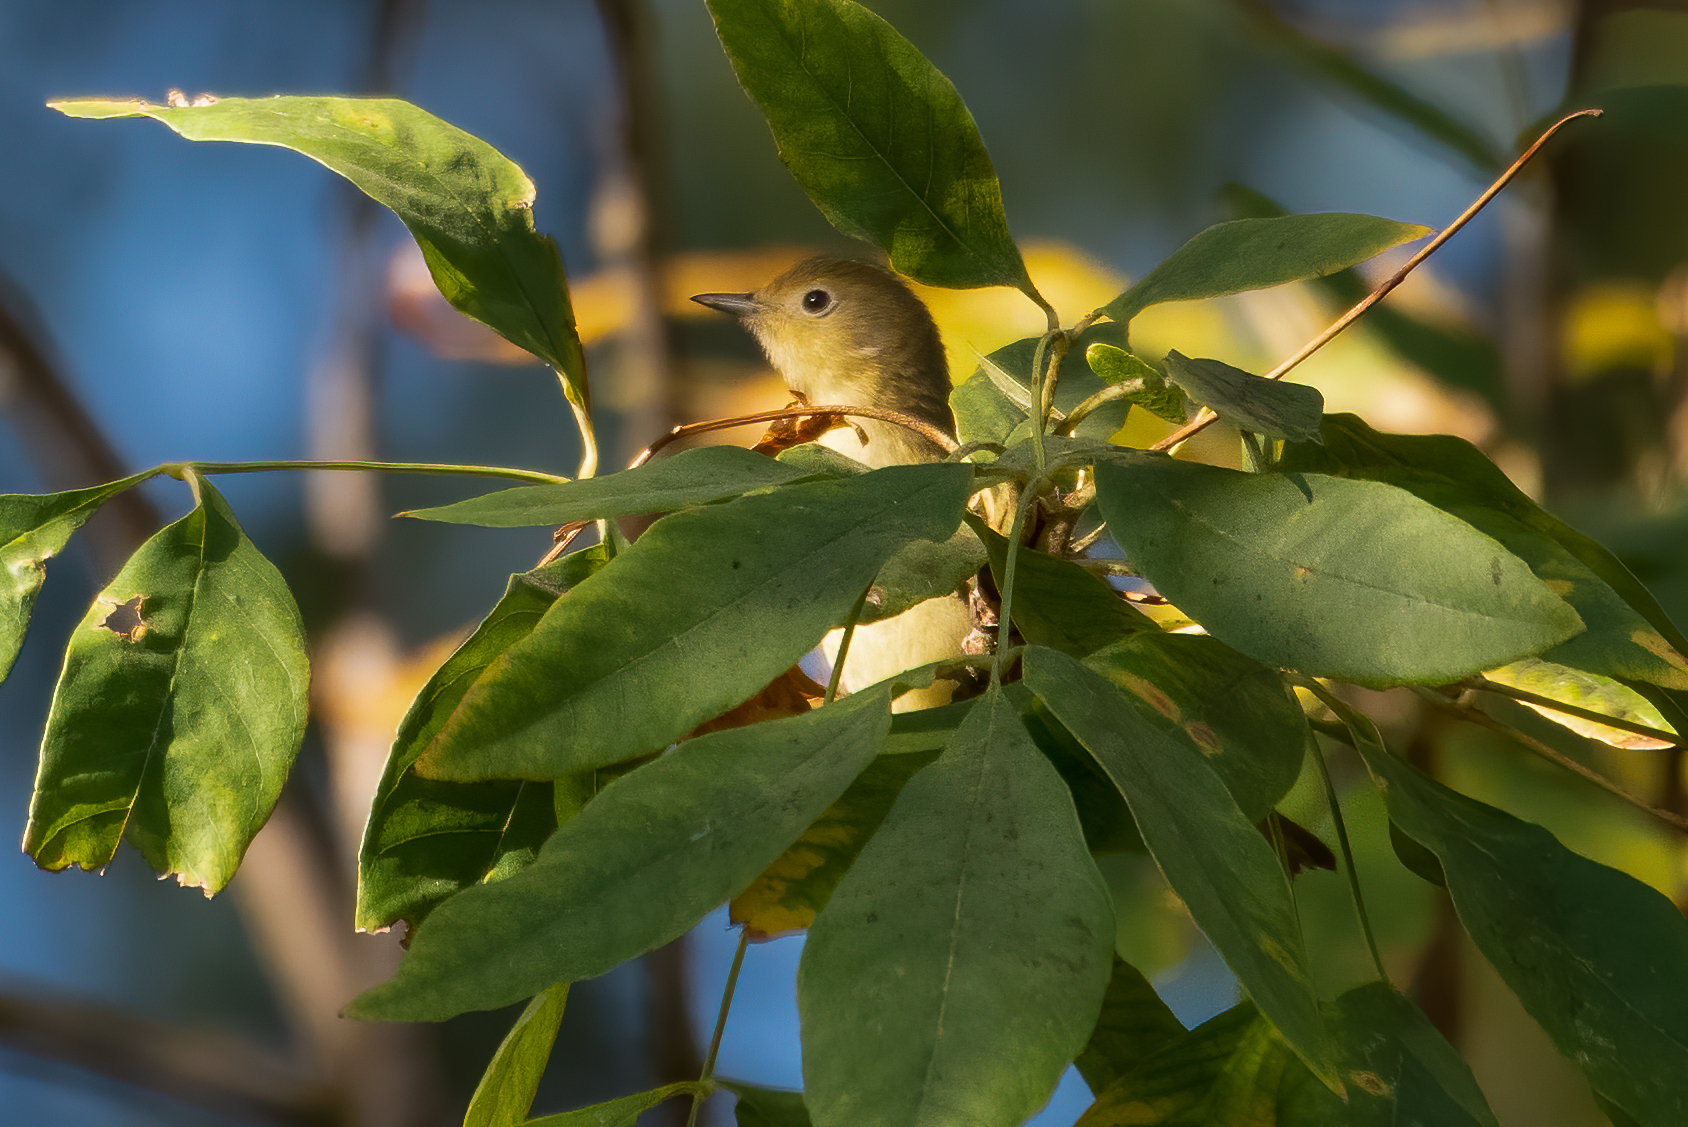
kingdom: Animalia
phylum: Chordata
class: Aves
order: Passeriformes
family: Parulidae
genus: Setophaga
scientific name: Setophaga petechia
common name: Yellow warbler
